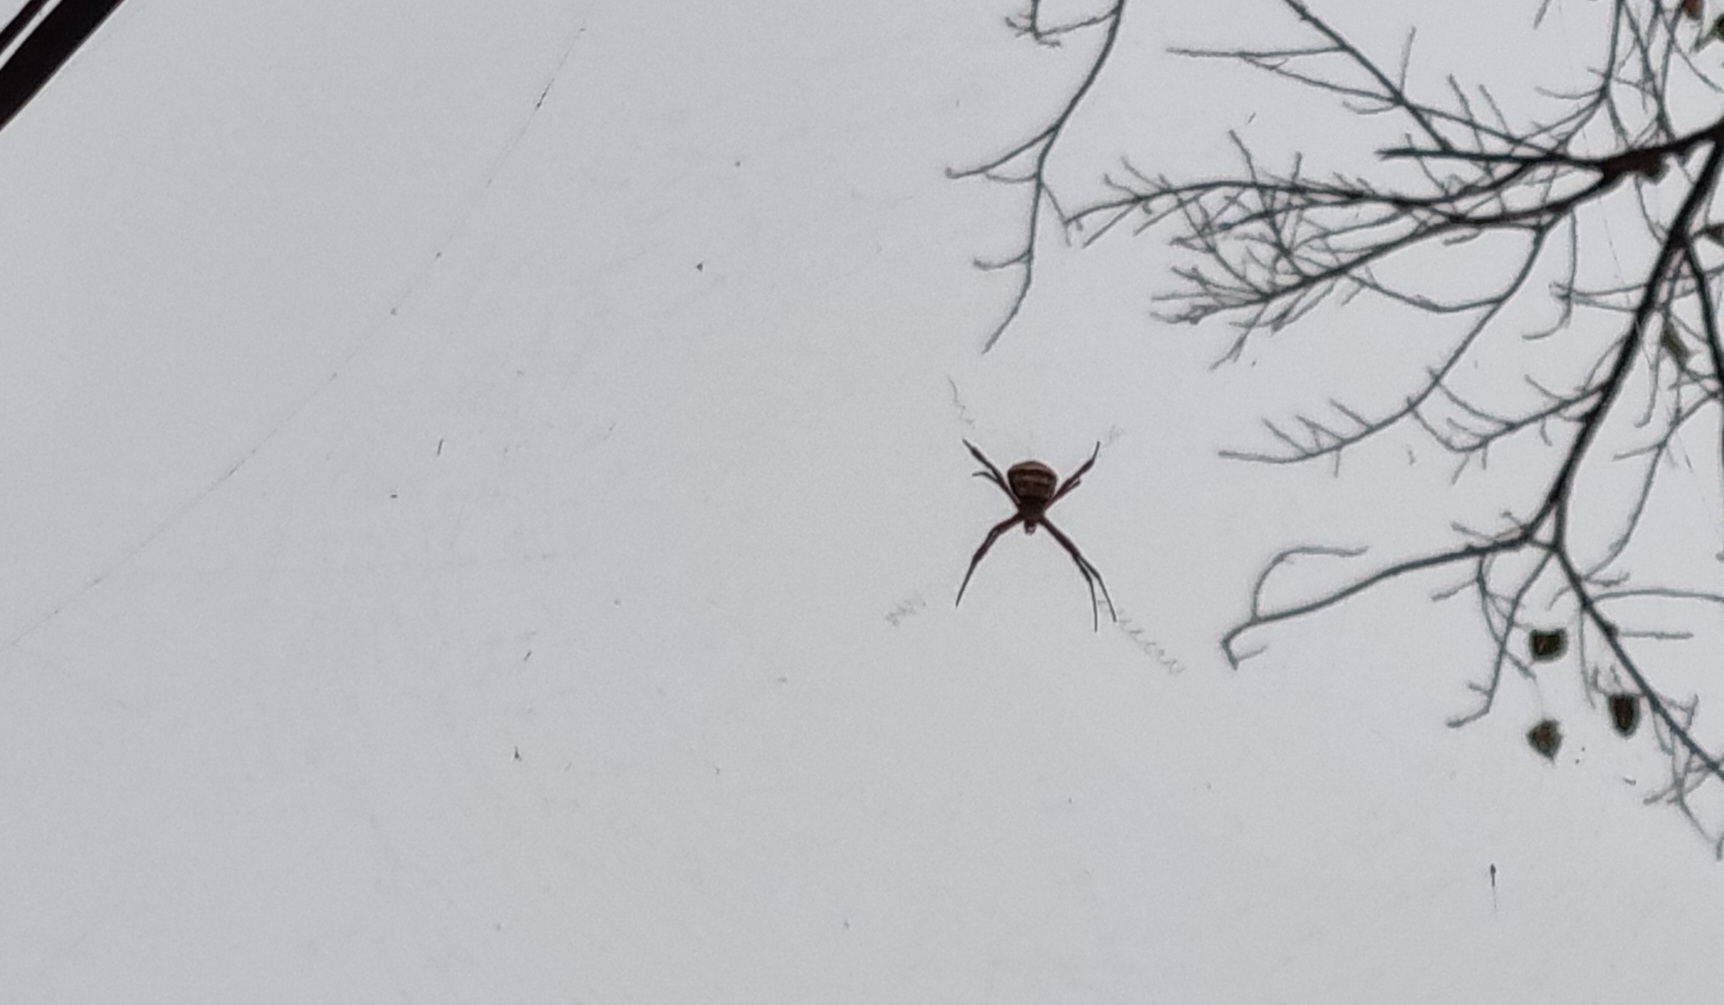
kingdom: Animalia
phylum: Arthropoda
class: Arachnida
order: Araneae
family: Araneidae
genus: Argiope
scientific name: Argiope anasuja
